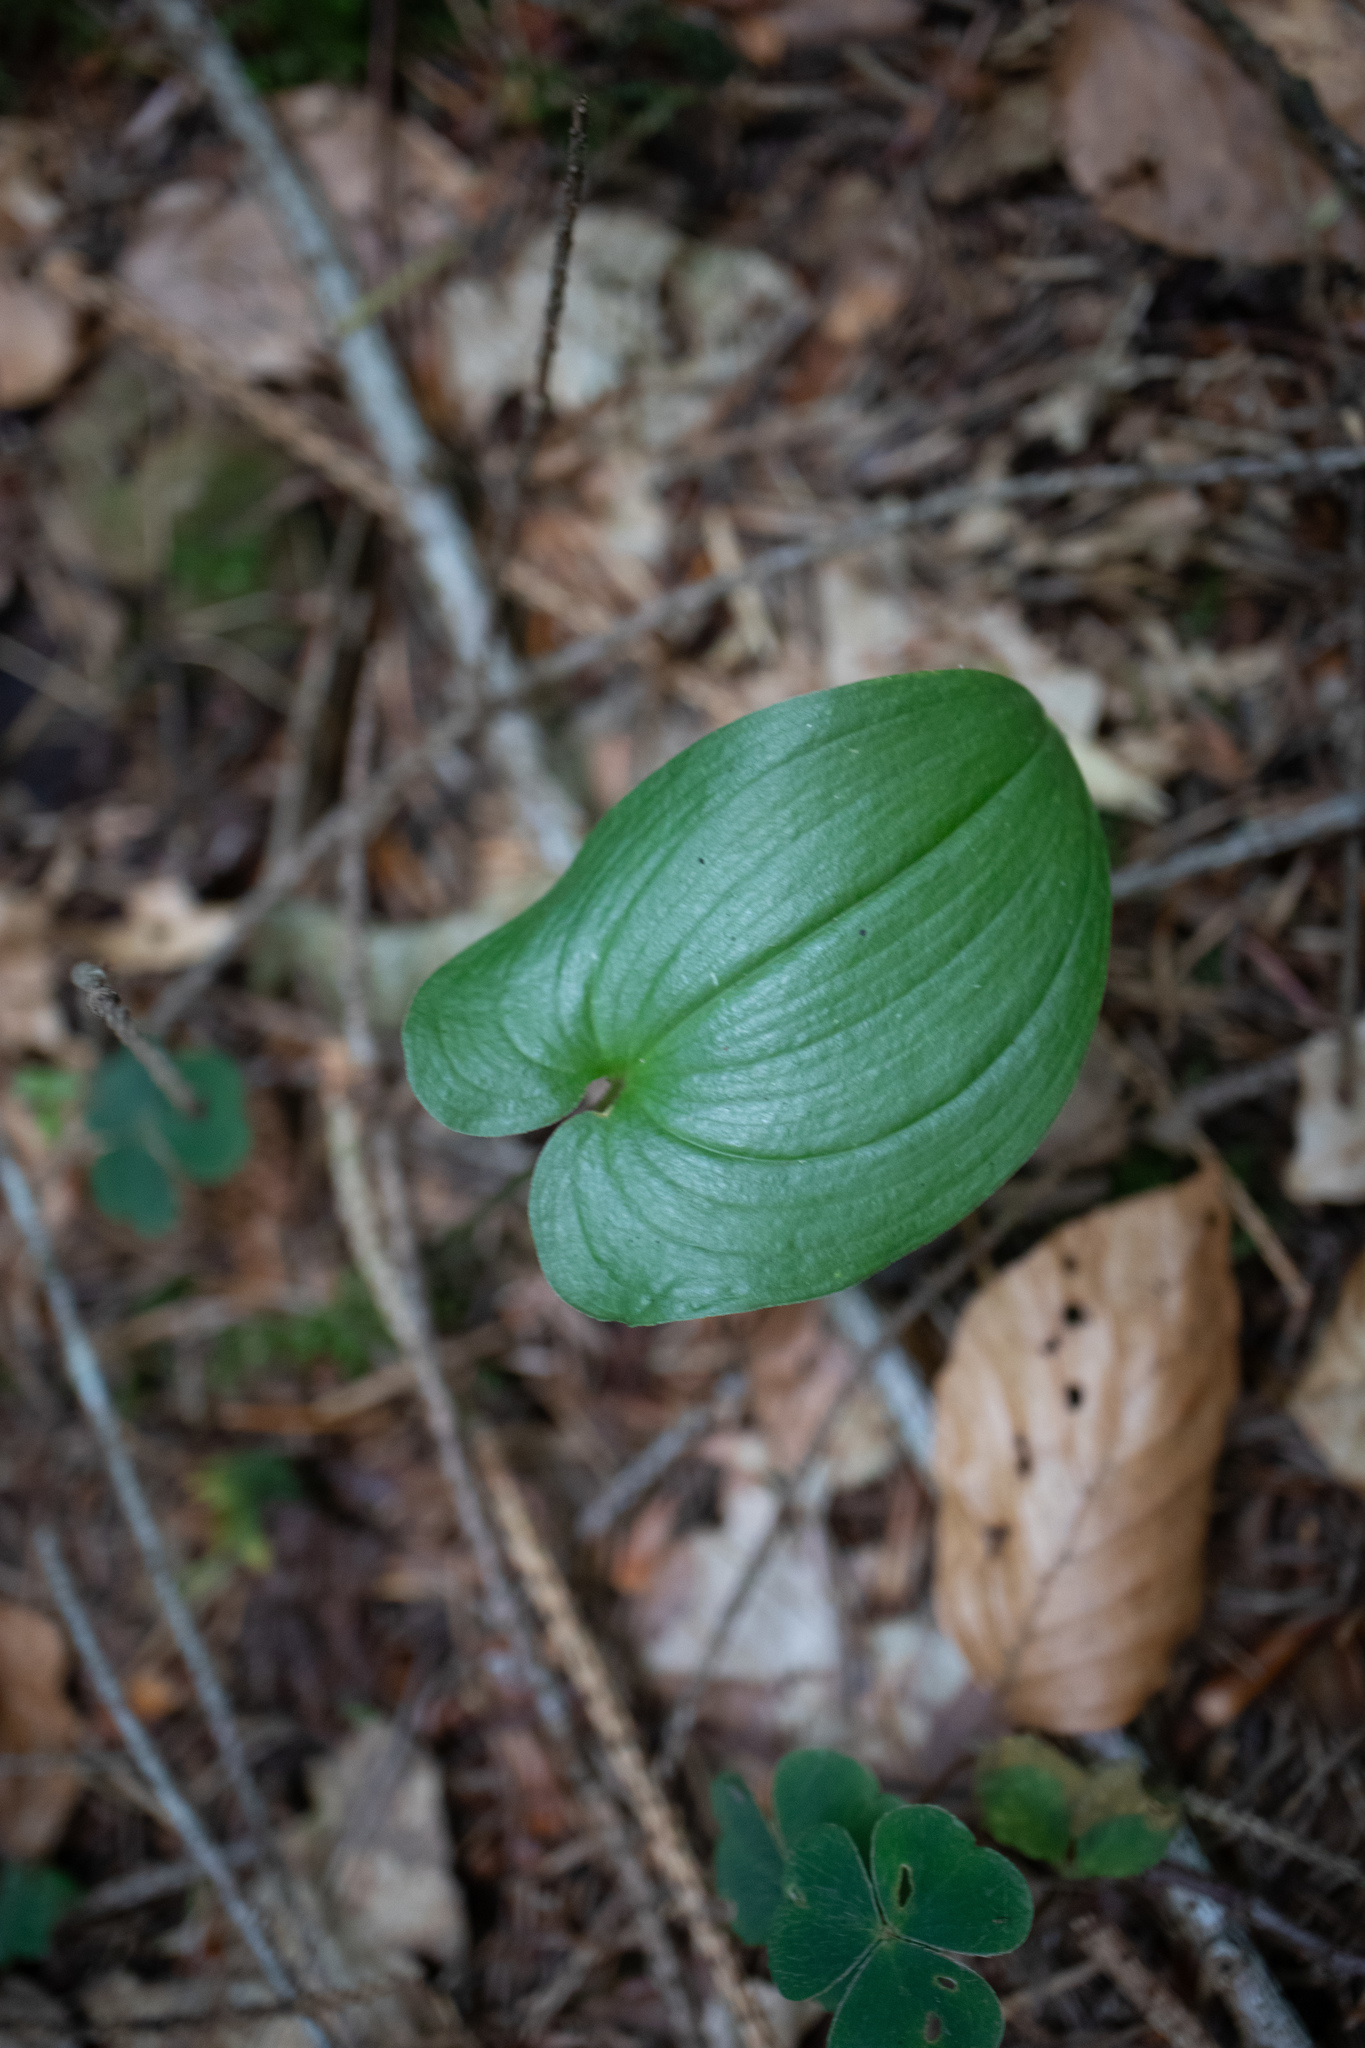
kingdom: Plantae
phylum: Tracheophyta
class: Liliopsida
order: Asparagales
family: Asparagaceae
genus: Maianthemum
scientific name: Maianthemum bifolium
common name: May lily
